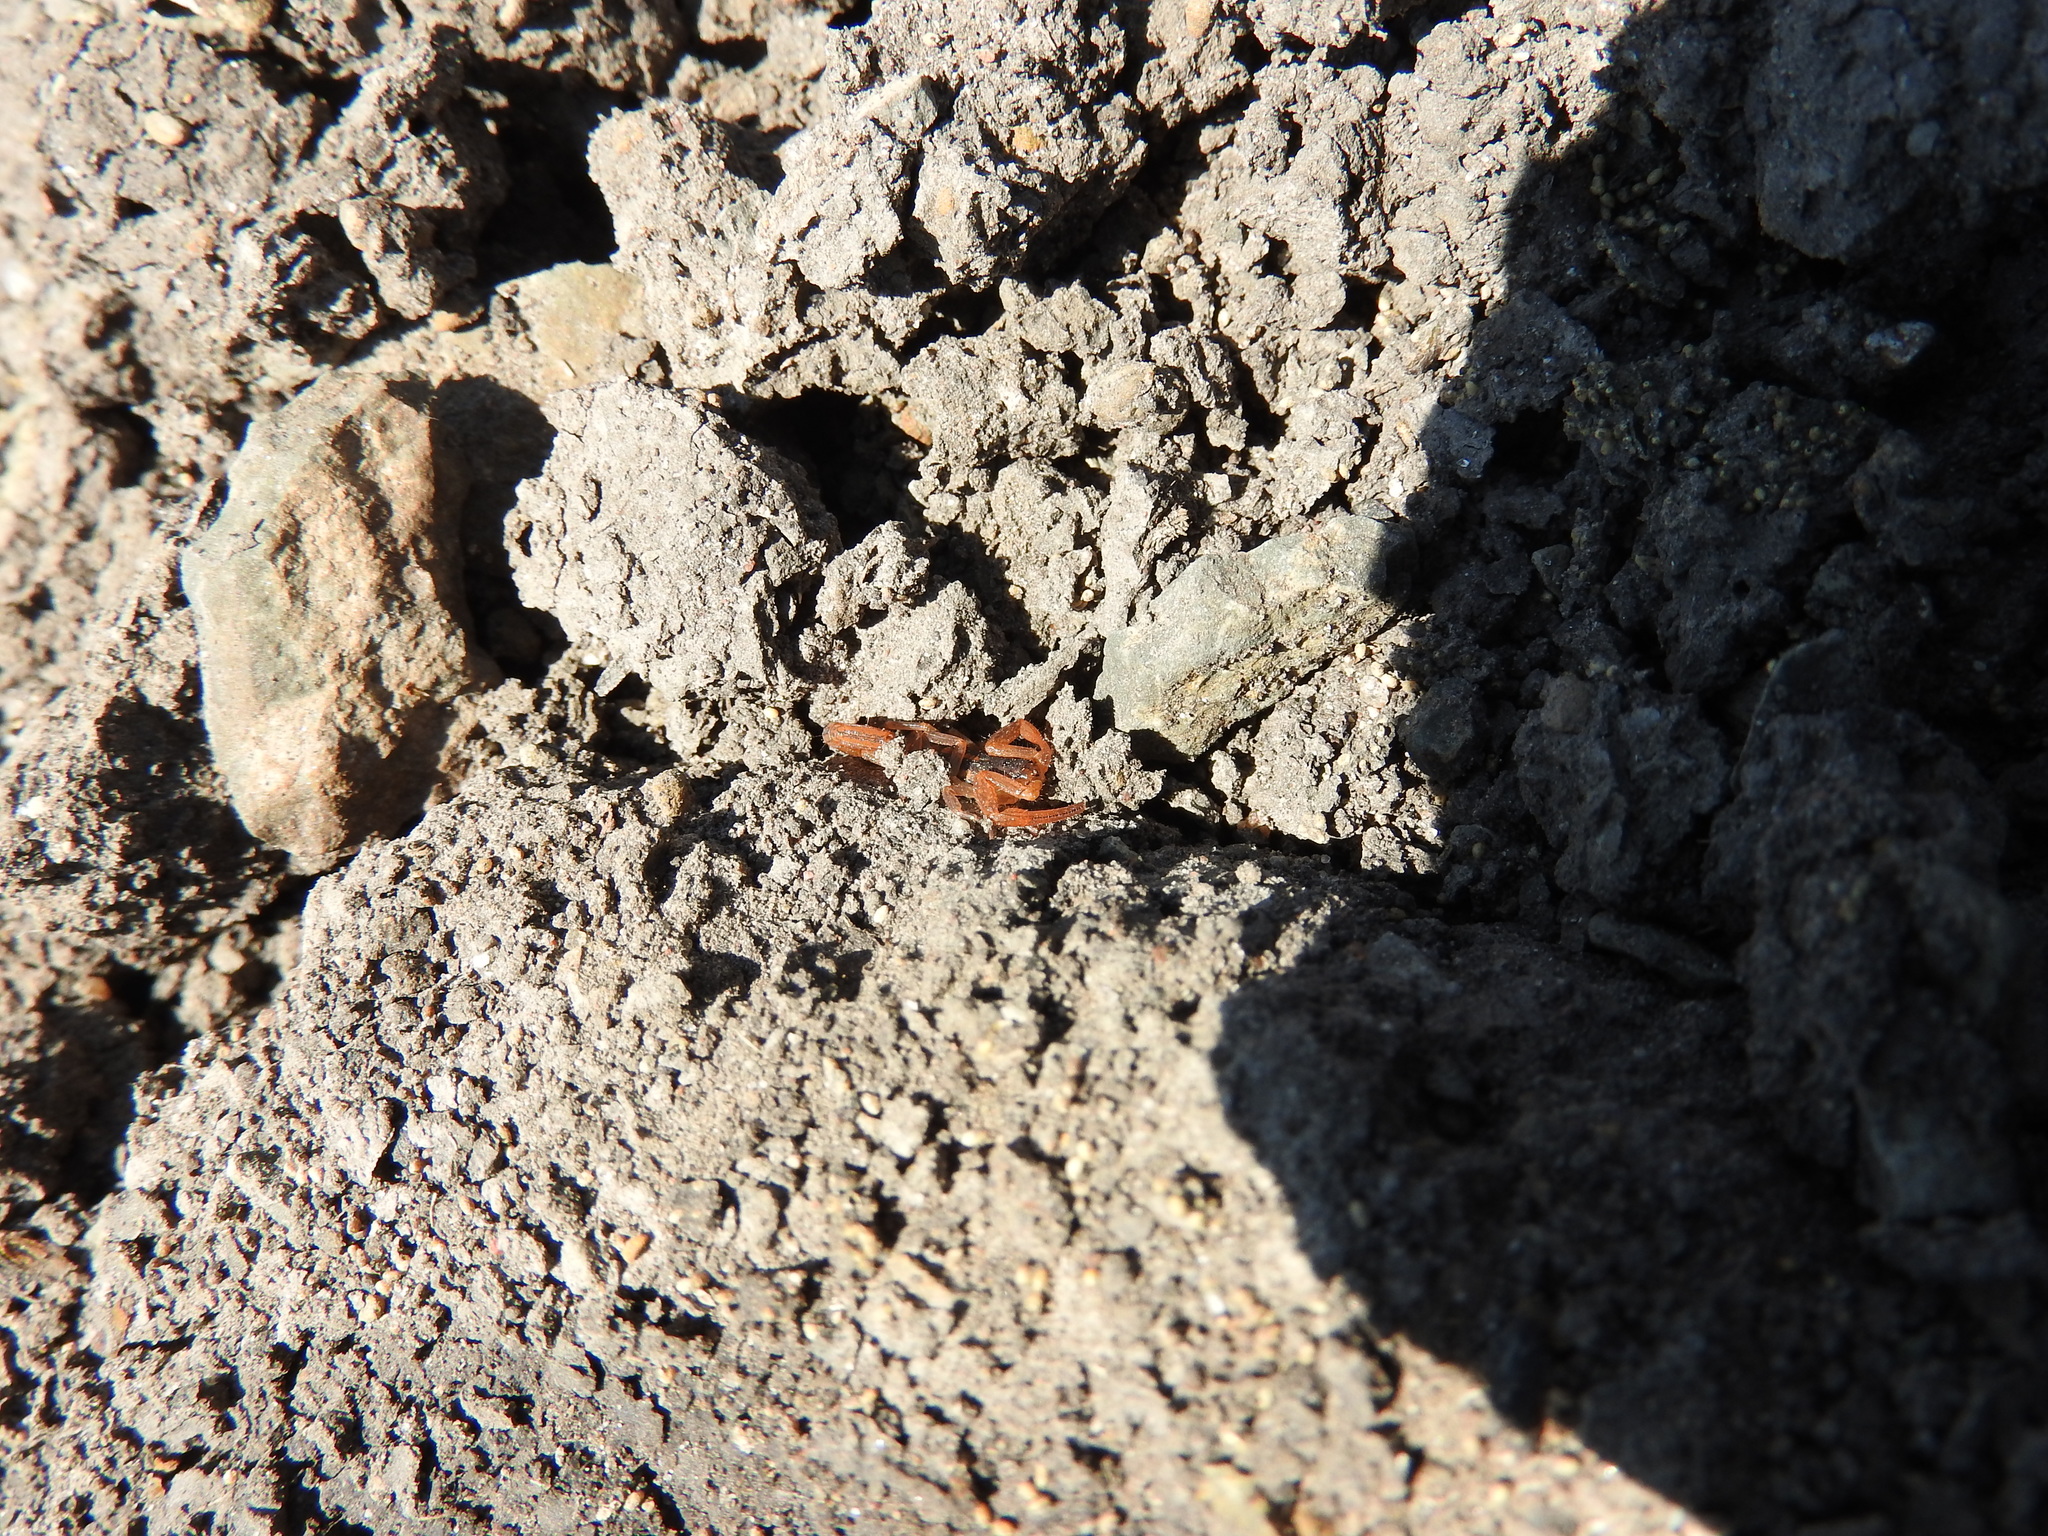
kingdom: Animalia
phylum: Arthropoda
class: Arachnida
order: Scorpiones
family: Buthidae
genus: Centruroides
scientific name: Centruroides ornatus
